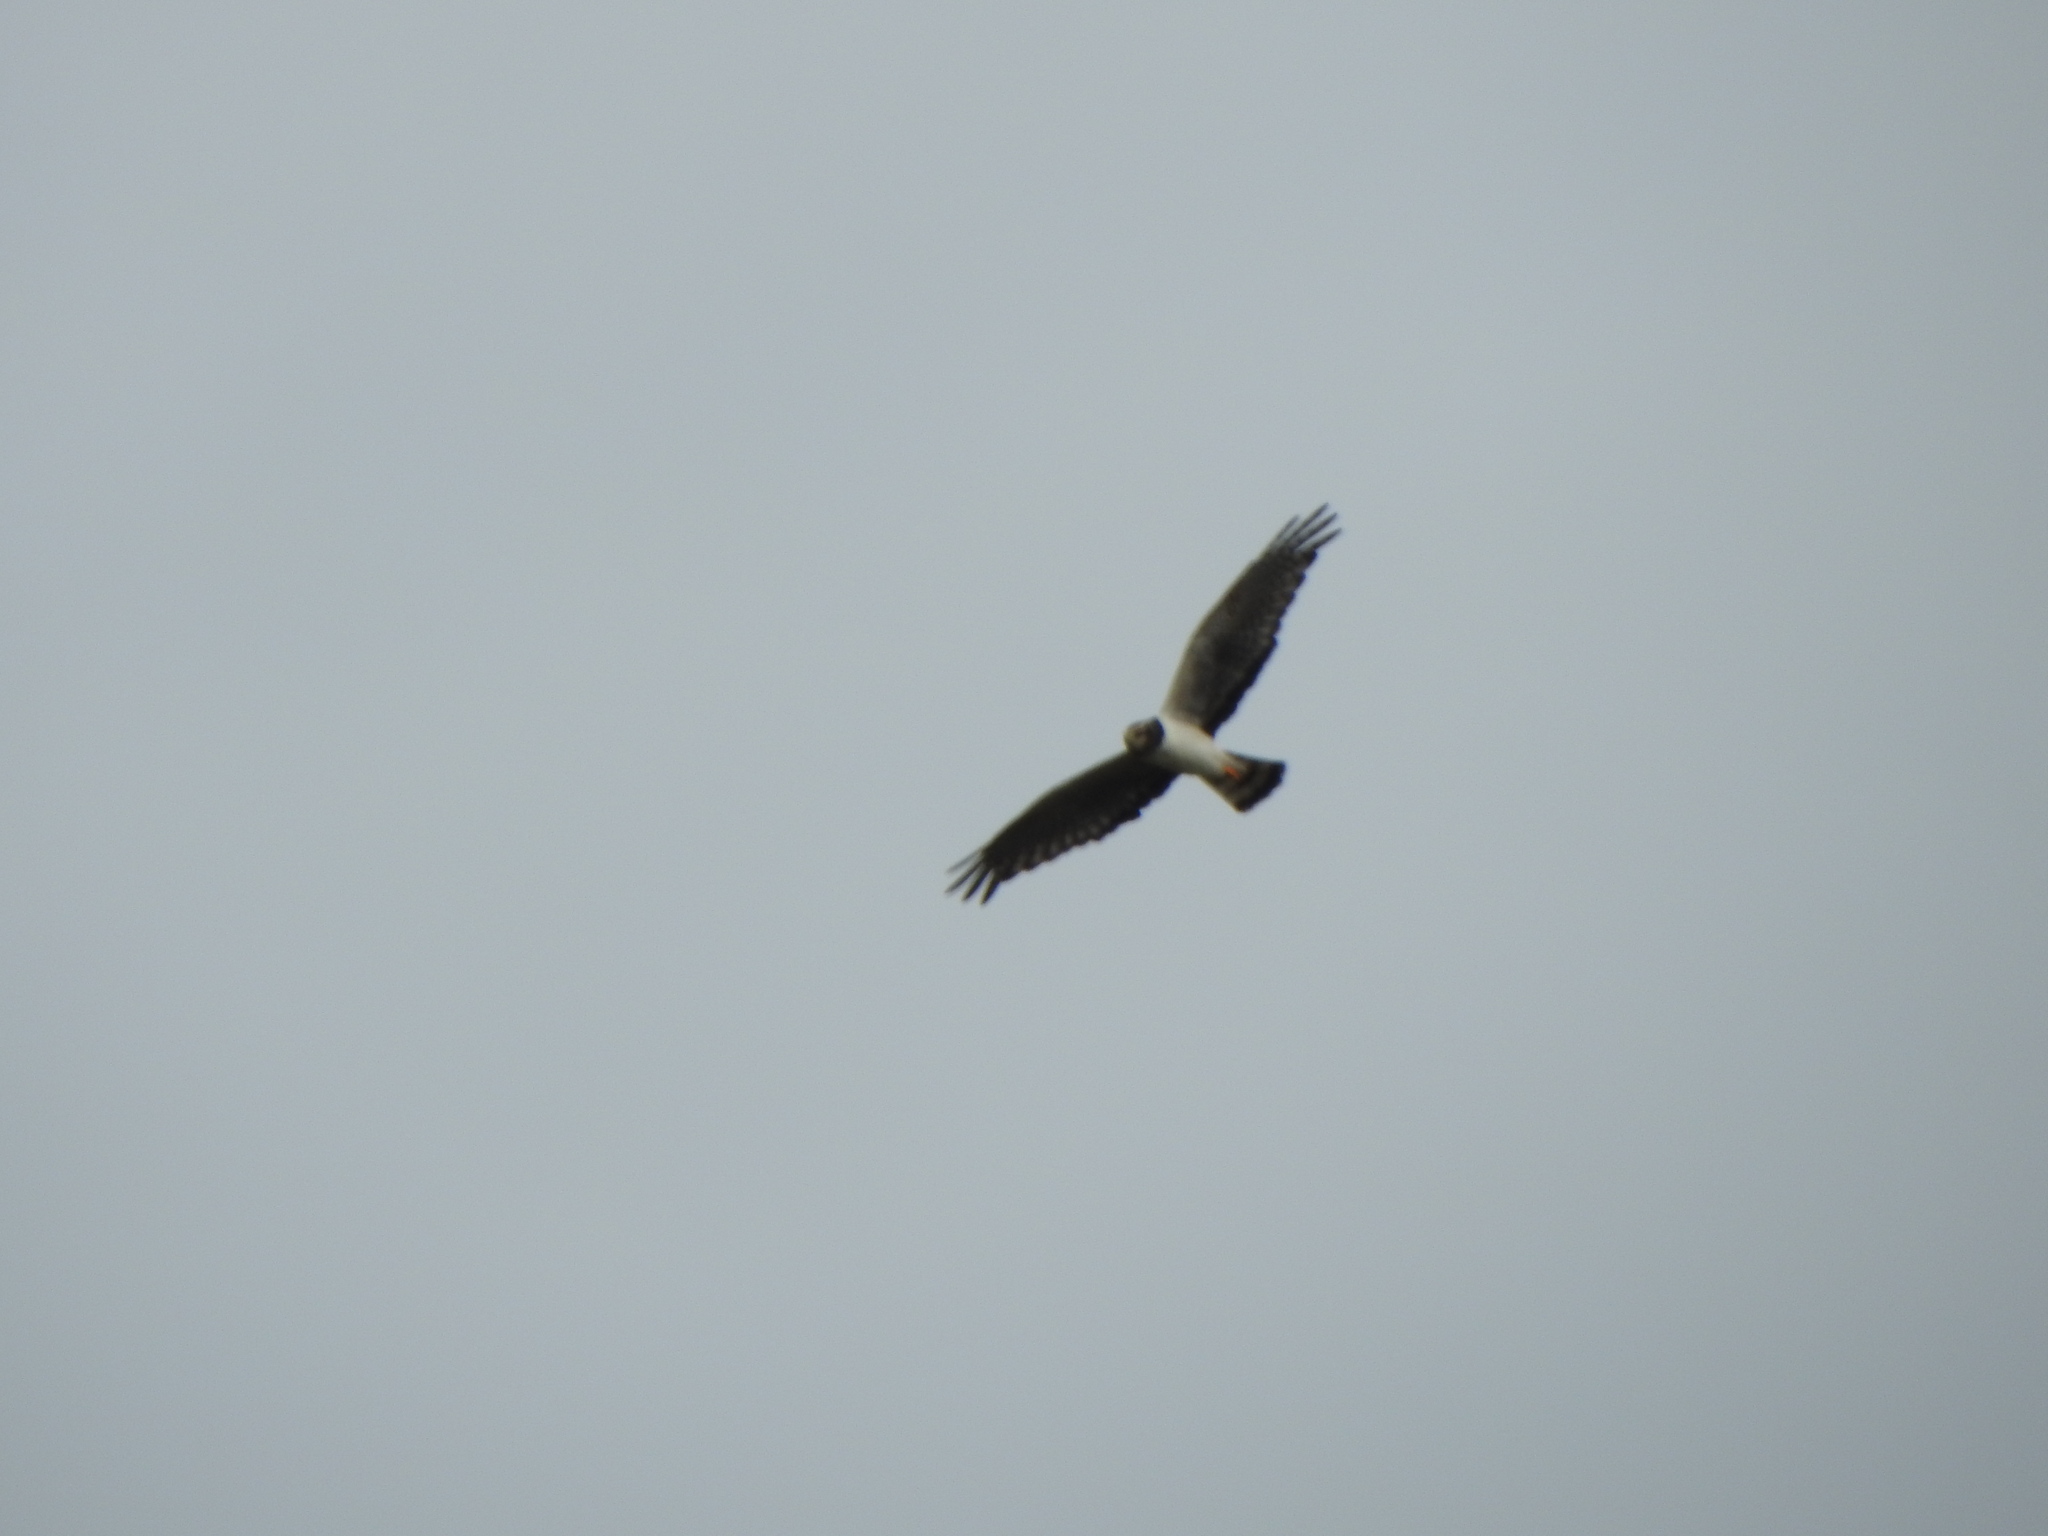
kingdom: Animalia
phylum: Chordata
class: Aves
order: Accipitriformes
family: Accipitridae
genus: Circus
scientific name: Circus buffoni
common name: Long-winged harrier
